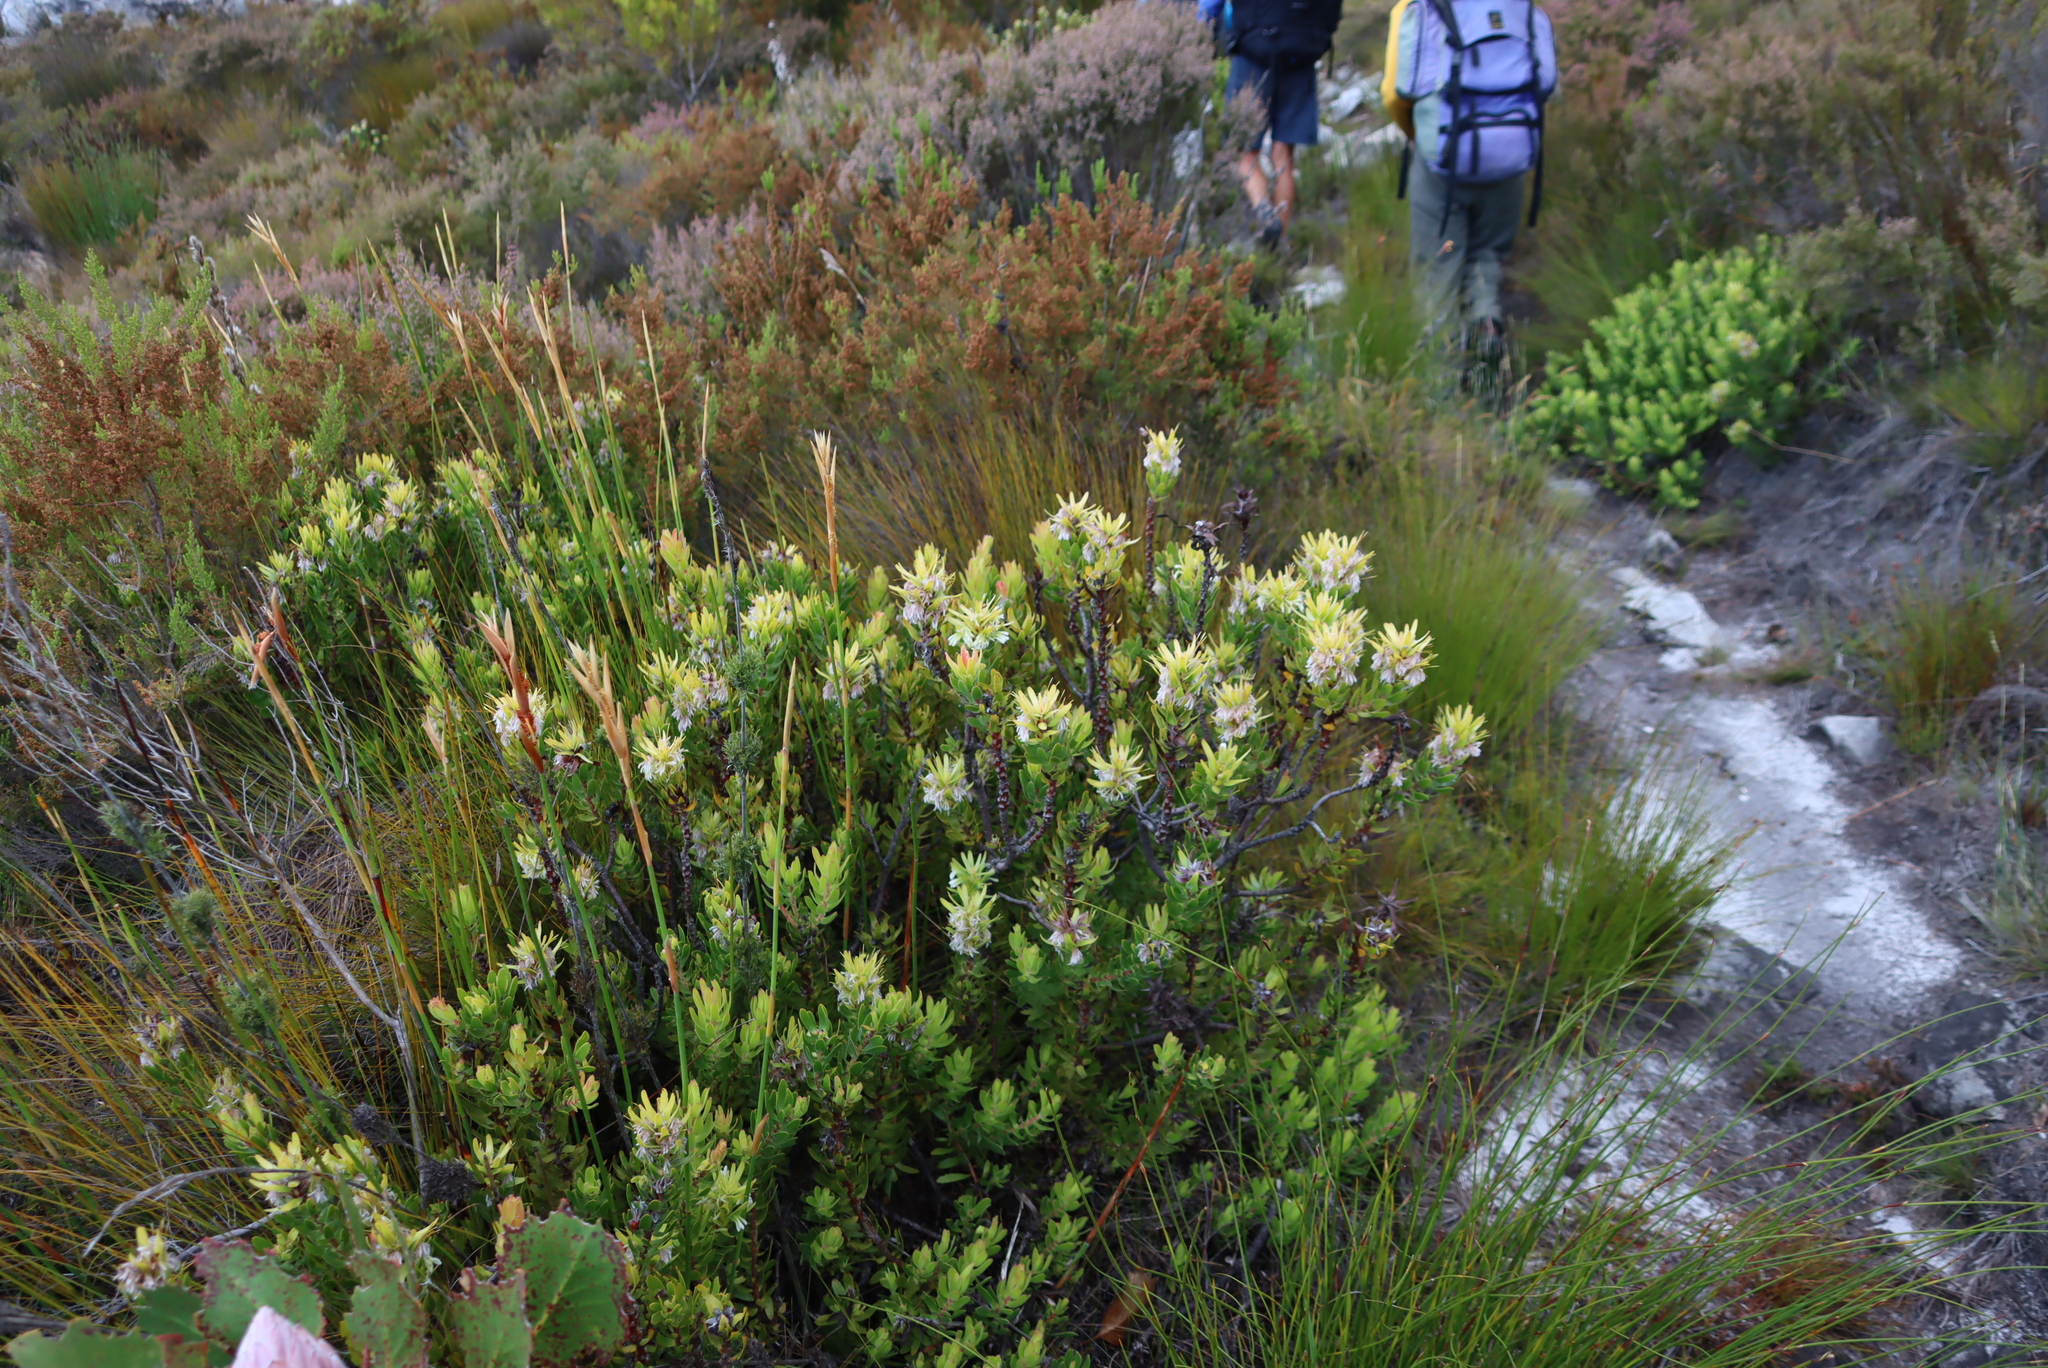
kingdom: Plantae
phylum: Tracheophyta
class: Magnoliopsida
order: Proteales
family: Proteaceae
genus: Mimetes
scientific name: Mimetes cucullatus
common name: Common pagoda
